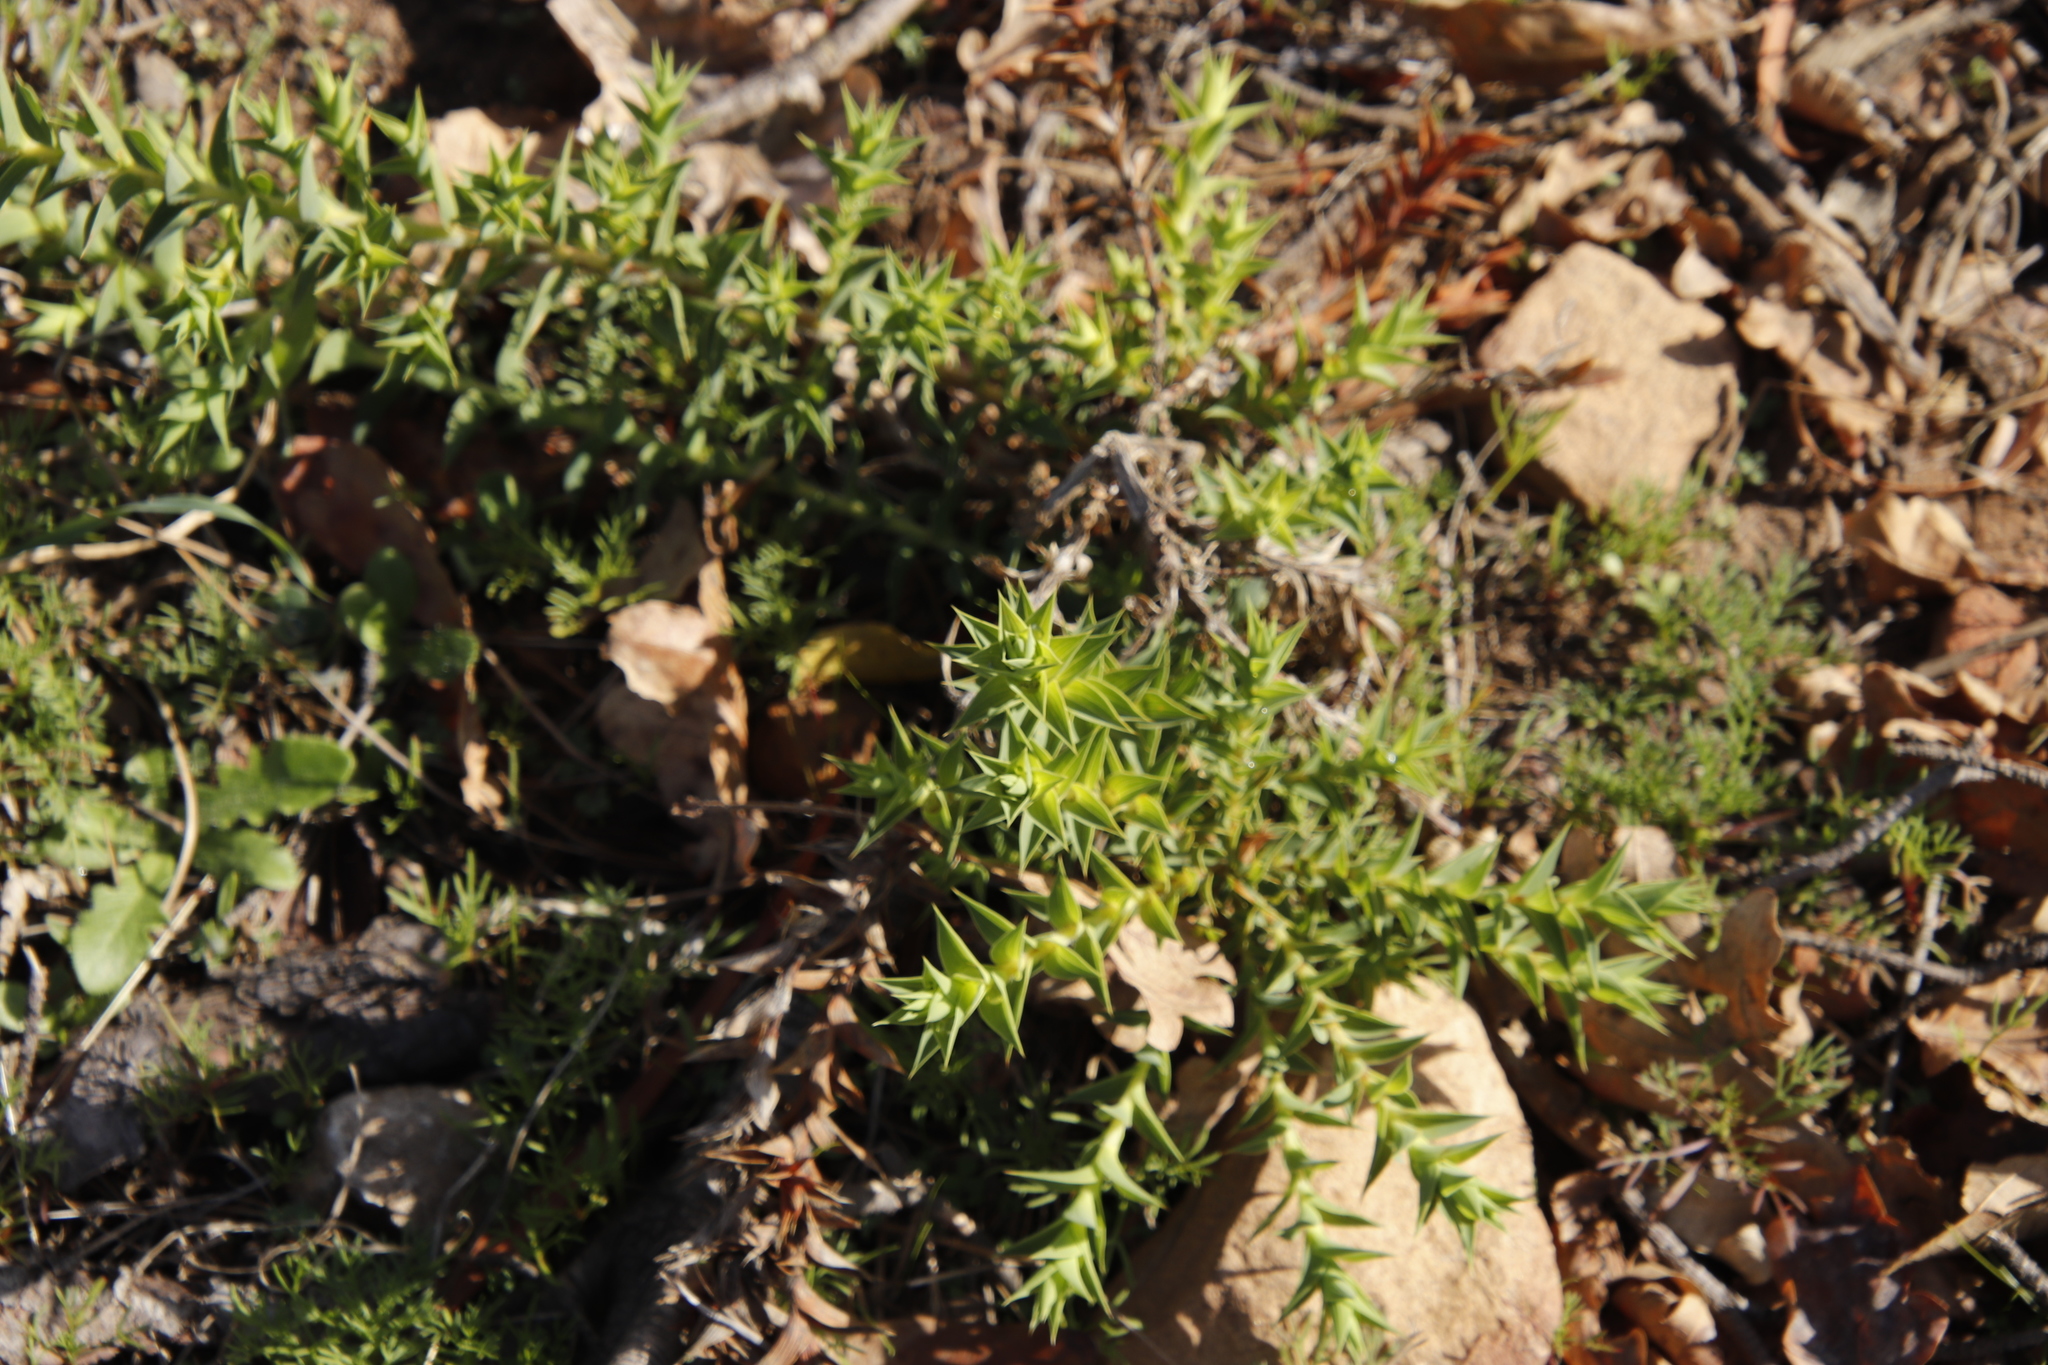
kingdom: Plantae
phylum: Tracheophyta
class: Magnoliopsida
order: Fabales
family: Fabaceae
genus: Aspalathus
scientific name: Aspalathus cordata
